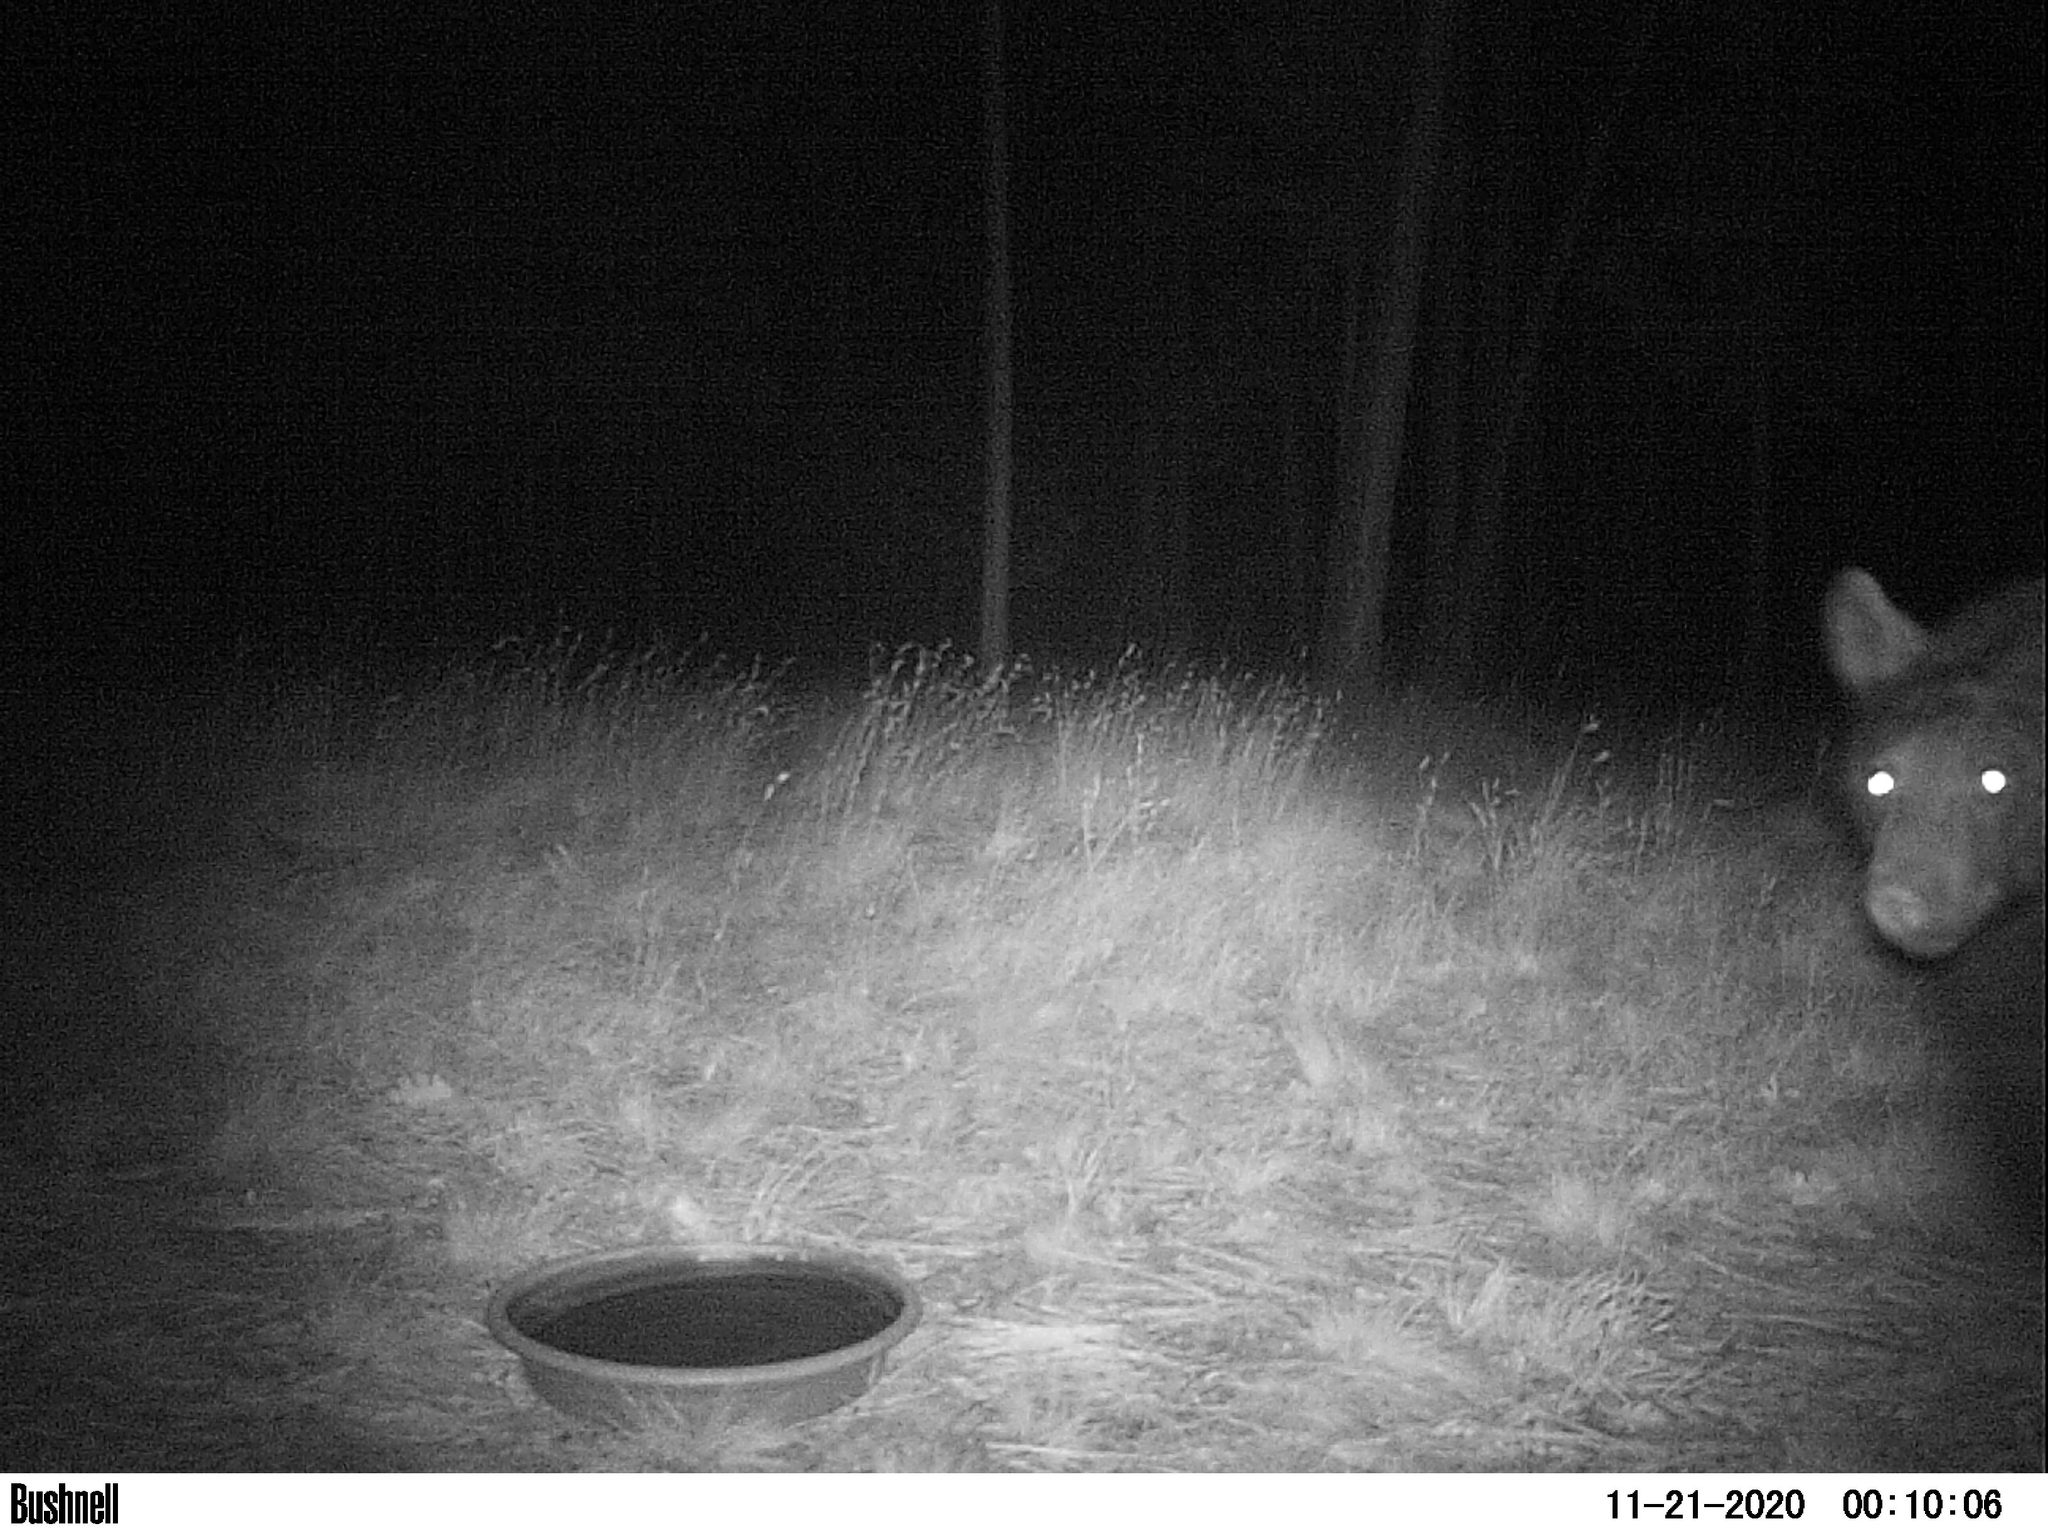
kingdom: Animalia
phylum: Chordata
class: Mammalia
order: Carnivora
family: Ursidae
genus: Ursus
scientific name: Ursus americanus
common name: American black bear
